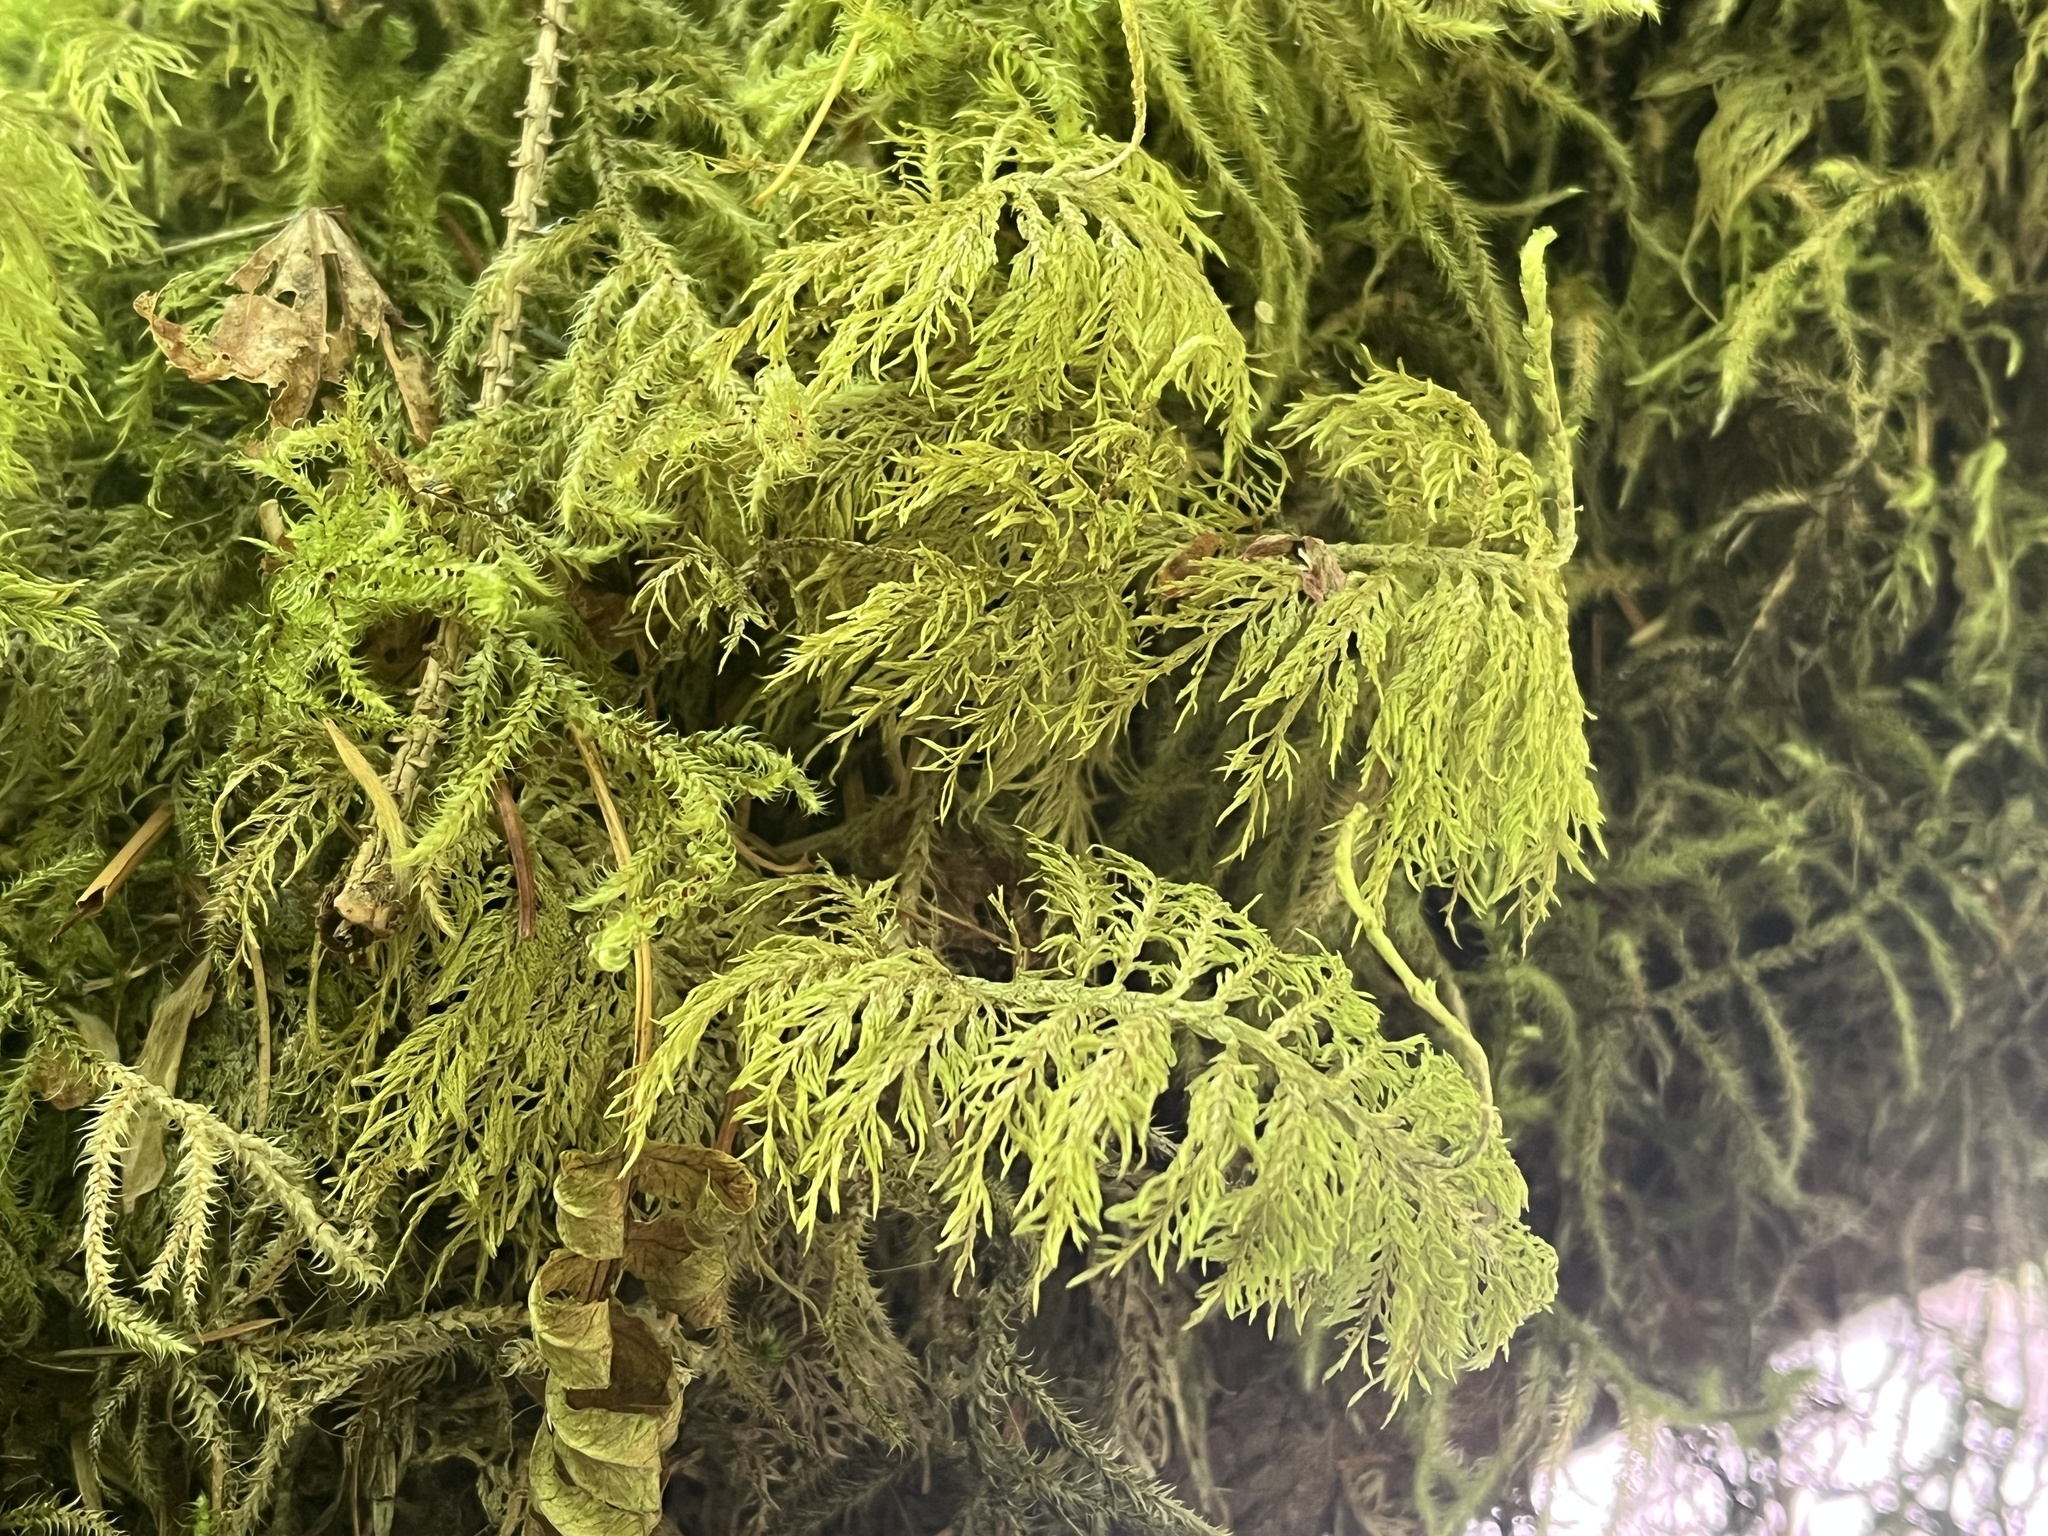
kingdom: Plantae
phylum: Bryophyta
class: Bryopsida
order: Hypnales
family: Hylocomiaceae
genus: Hylocomium
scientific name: Hylocomium splendens
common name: Stairstep moss
